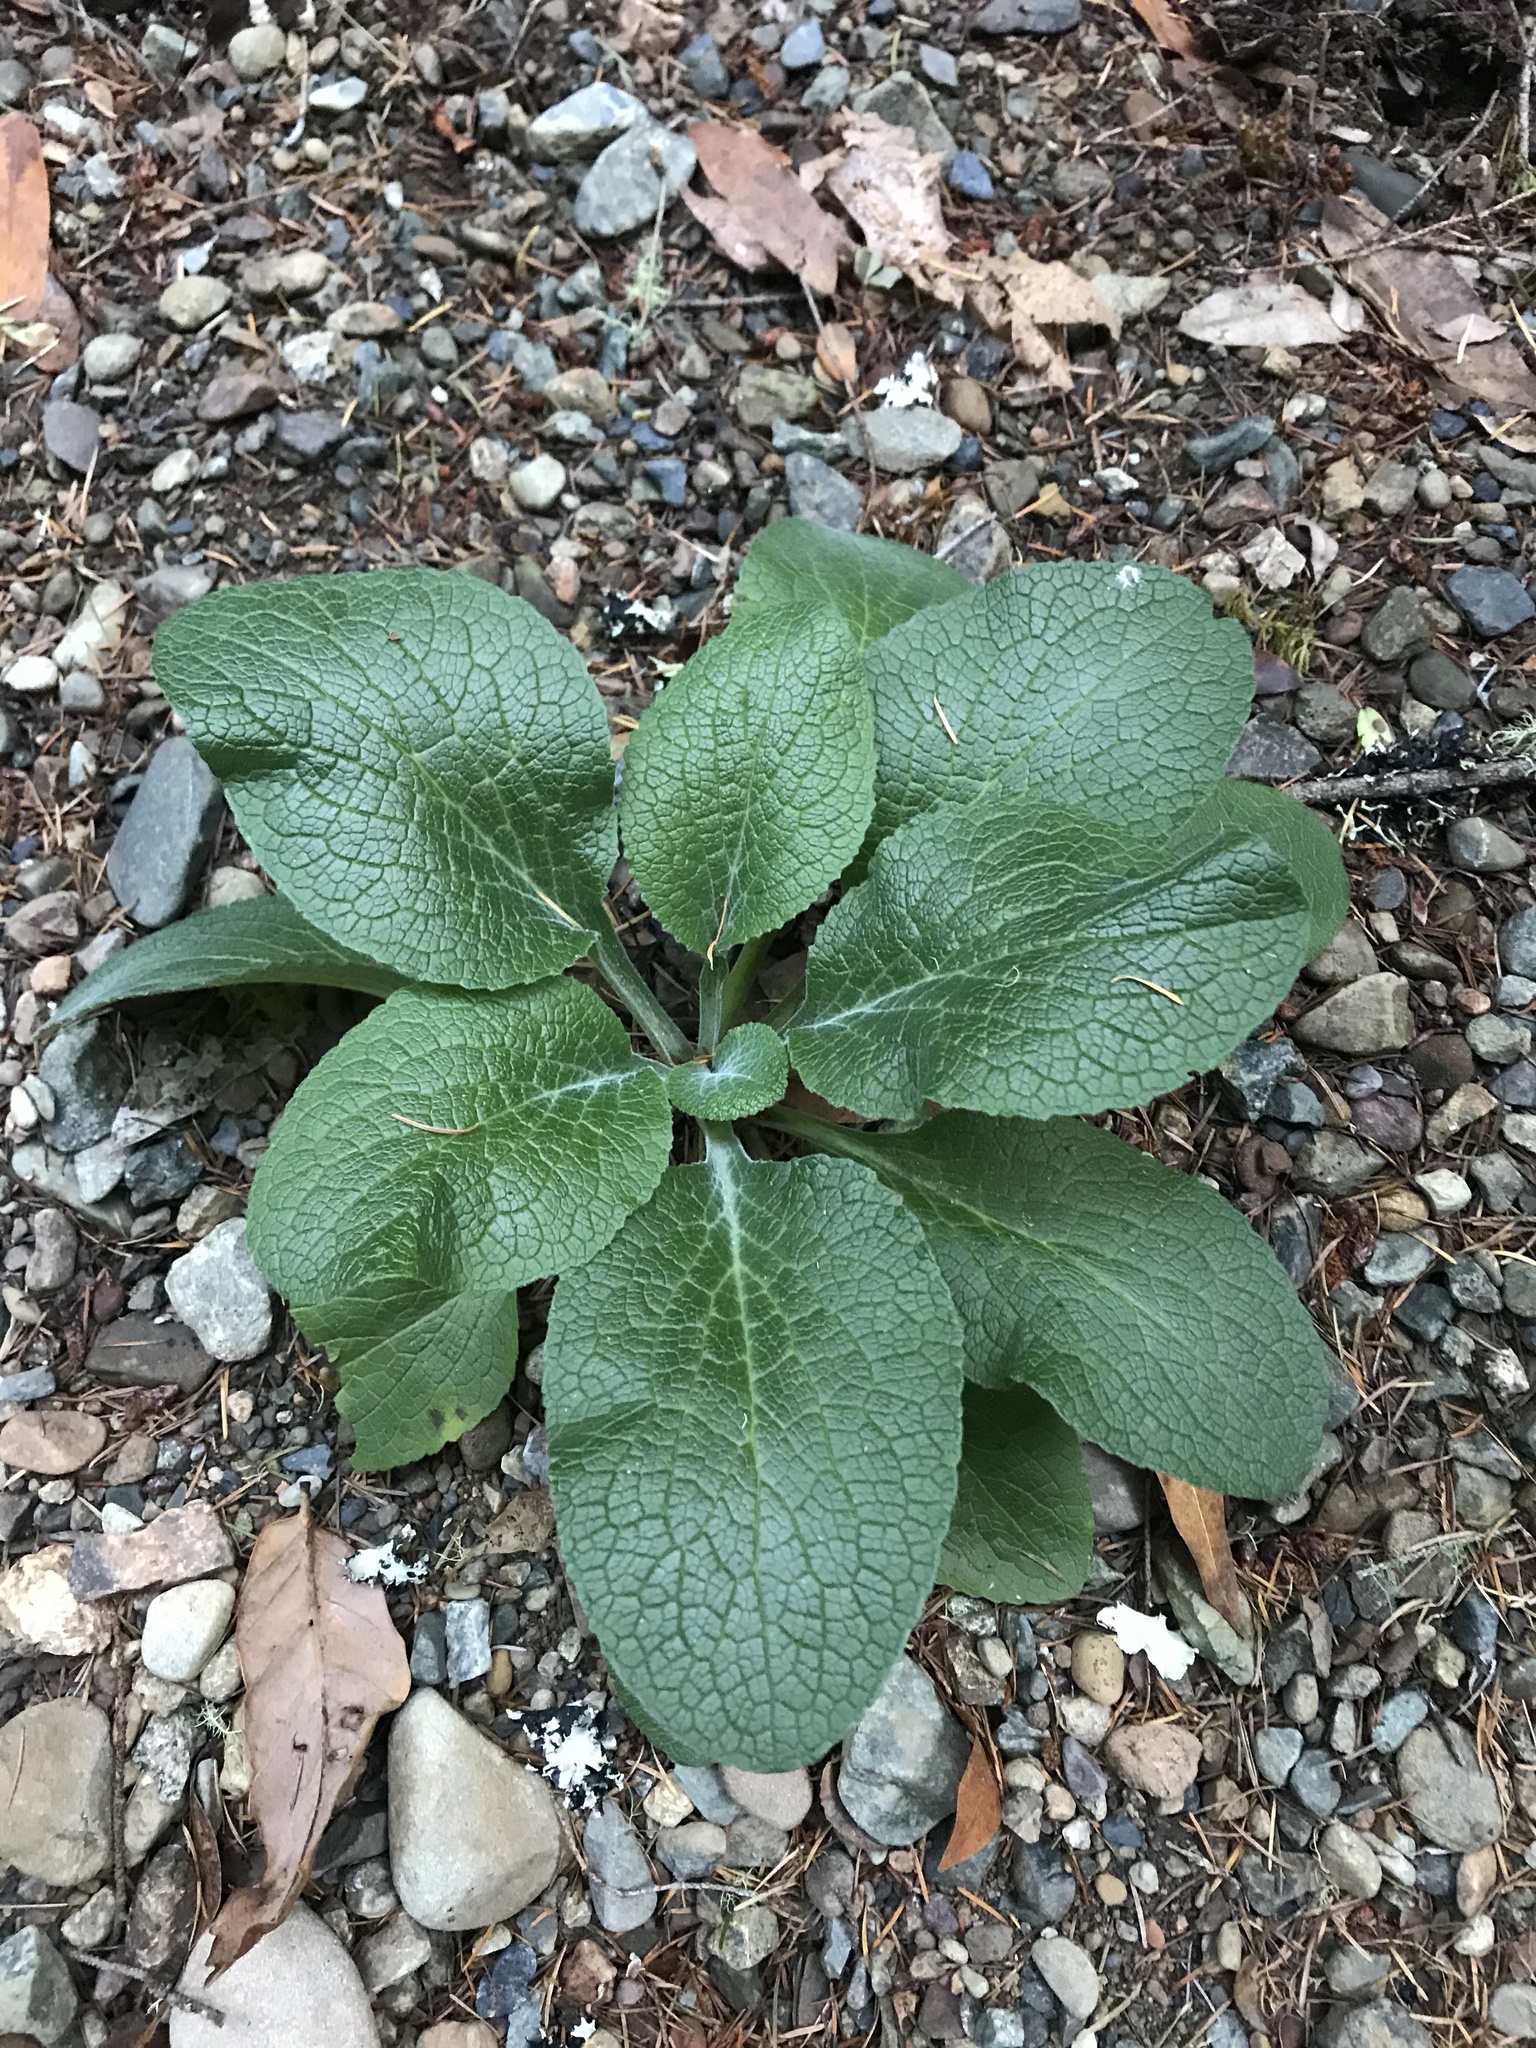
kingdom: Plantae
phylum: Tracheophyta
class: Magnoliopsida
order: Lamiales
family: Plantaginaceae
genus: Digitalis
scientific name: Digitalis purpurea
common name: Foxglove
